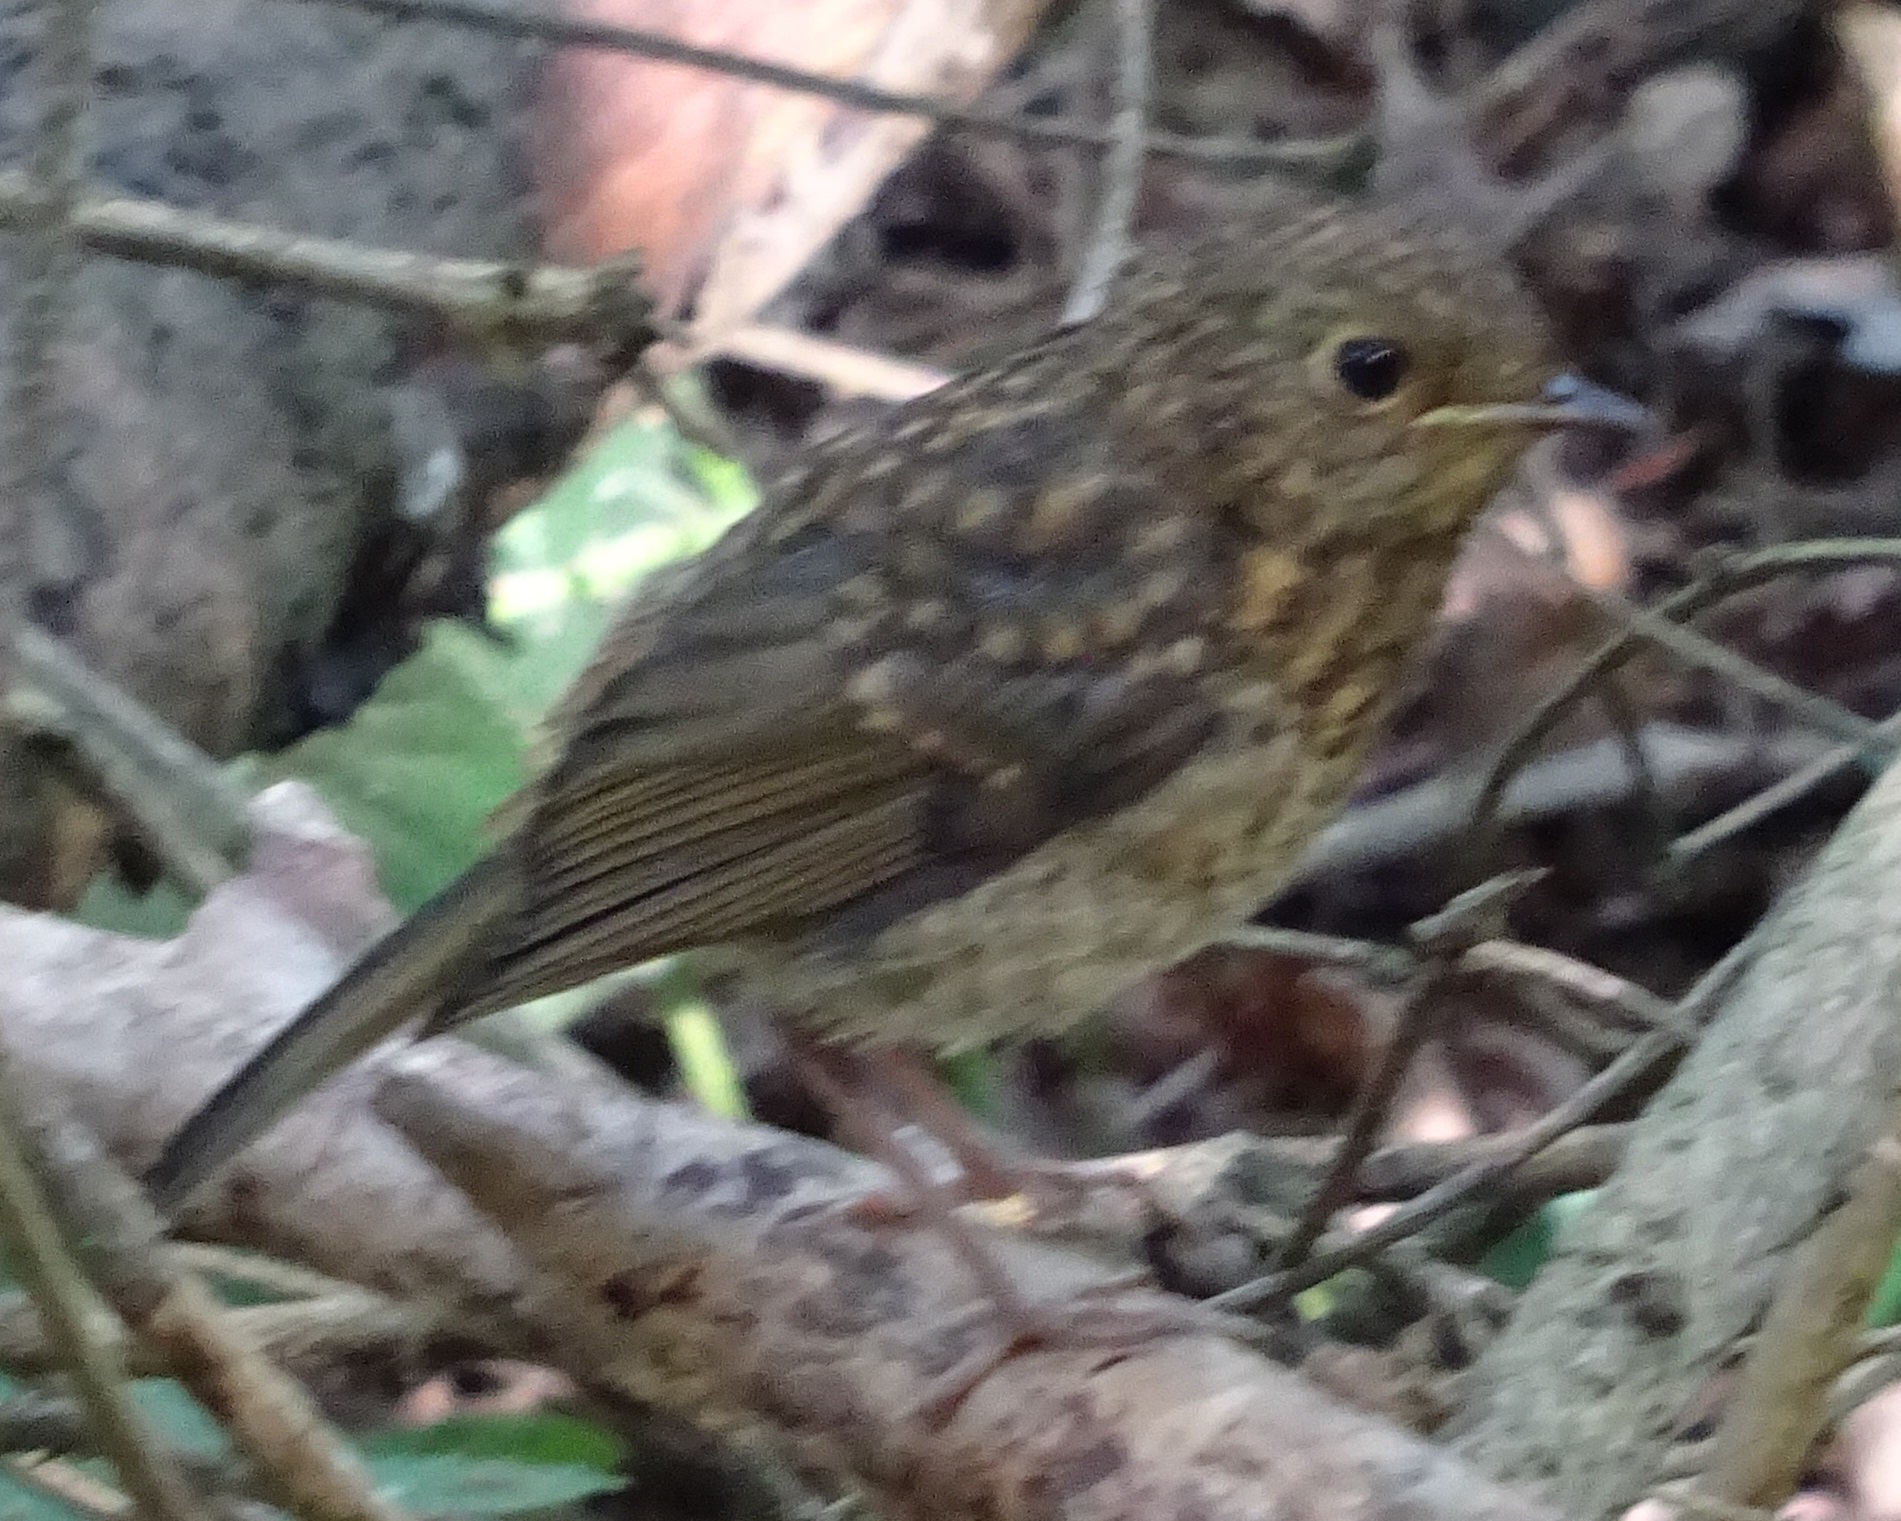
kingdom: Animalia
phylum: Chordata
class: Aves
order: Passeriformes
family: Muscicapidae
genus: Erithacus
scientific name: Erithacus rubecula
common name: European robin
